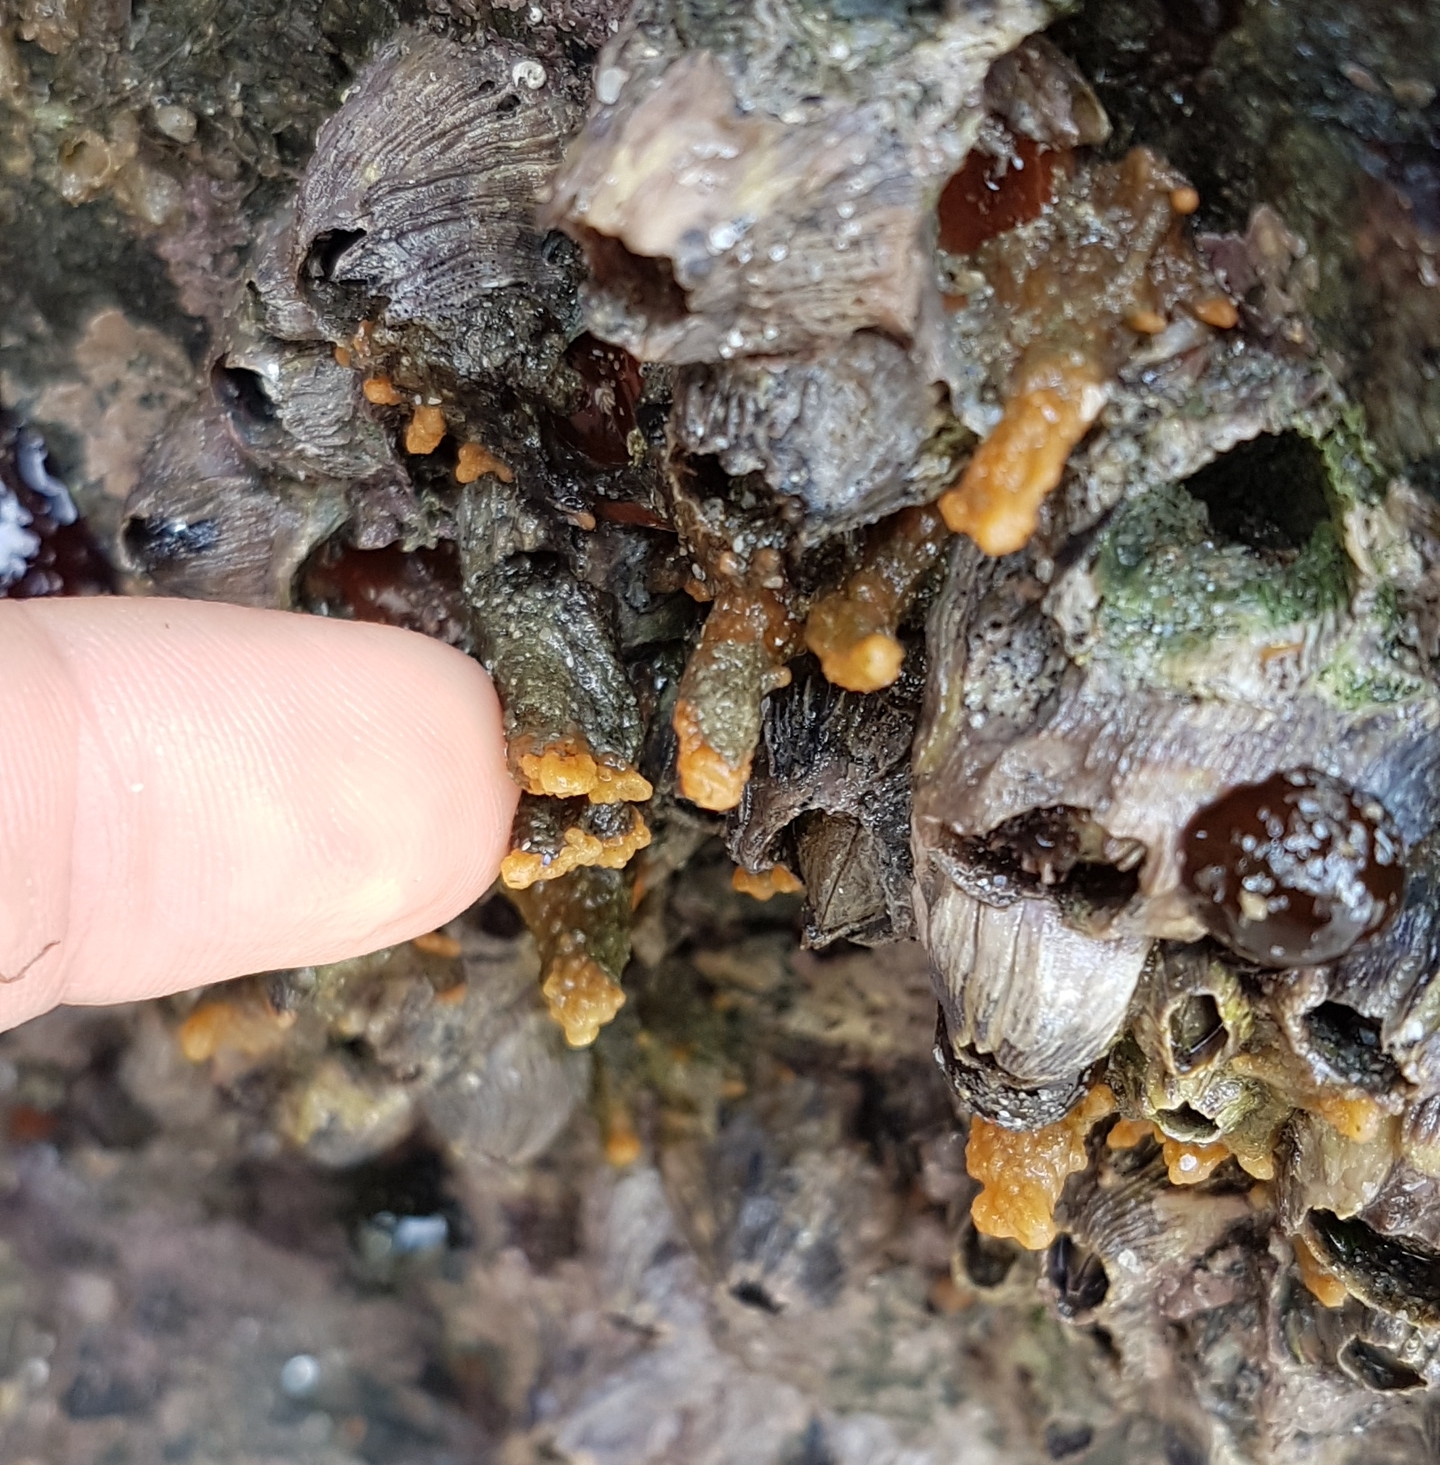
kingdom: Animalia
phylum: Porifera
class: Demospongiae
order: Suberitida
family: Halichondriidae
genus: Hymeniacidon
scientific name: Hymeniacidon perlevis
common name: Crumb-of-bread sponge
